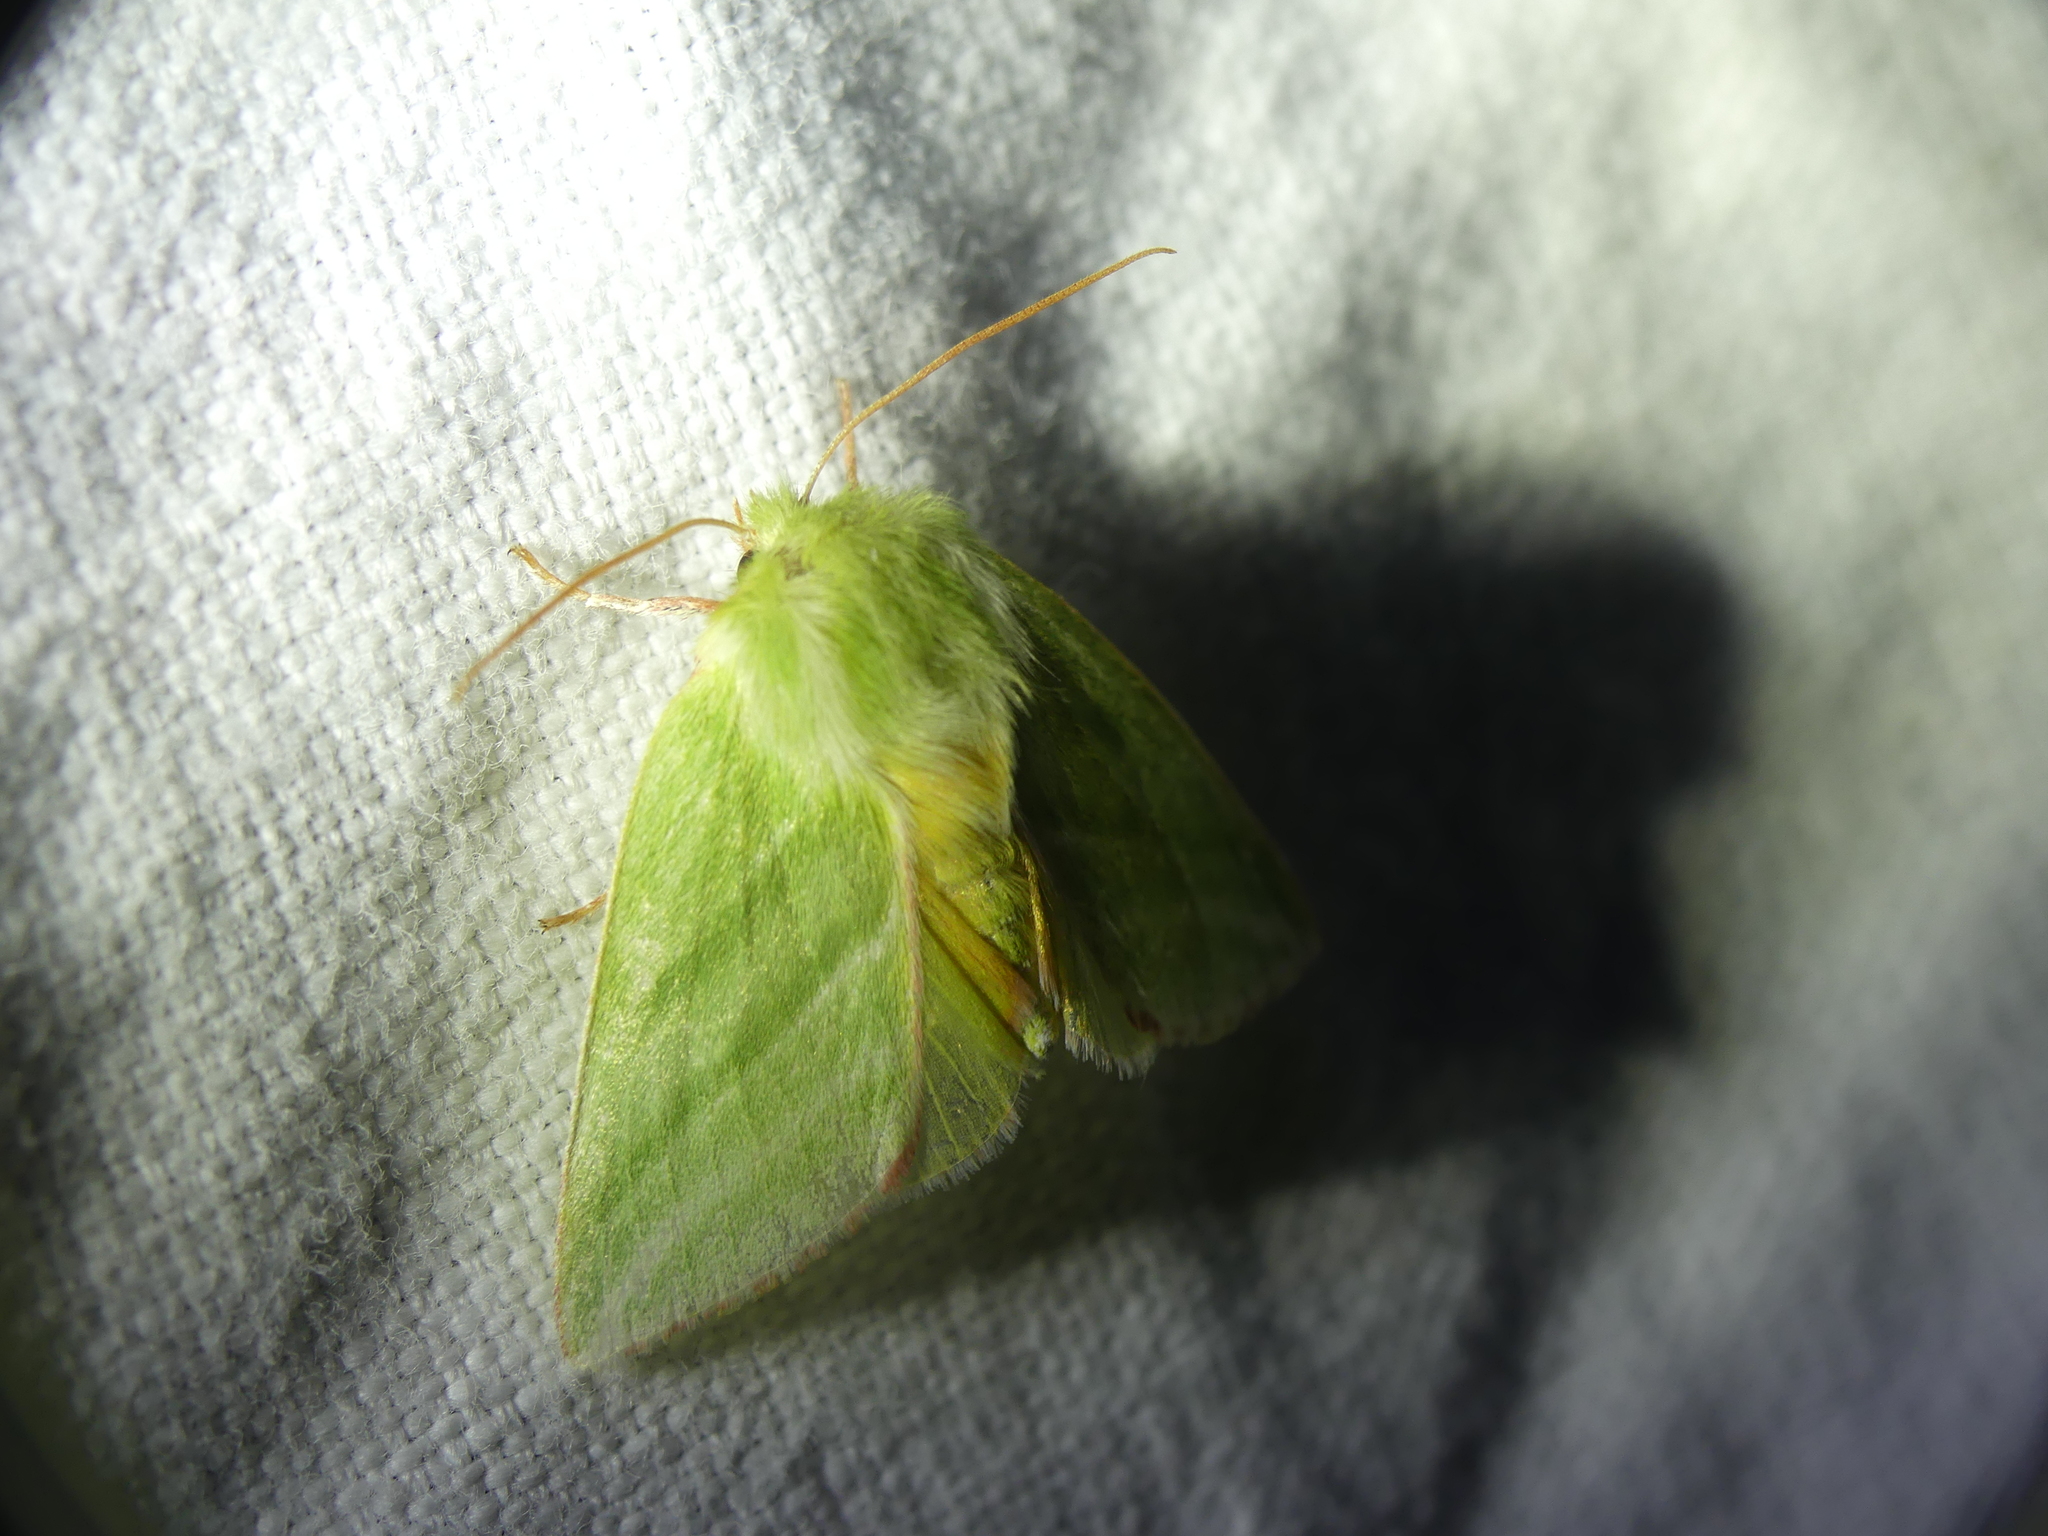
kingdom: Animalia
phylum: Arthropoda
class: Insecta
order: Lepidoptera
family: Nolidae
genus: Pseudoips
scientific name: Pseudoips prasinana
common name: Green silver-lines
